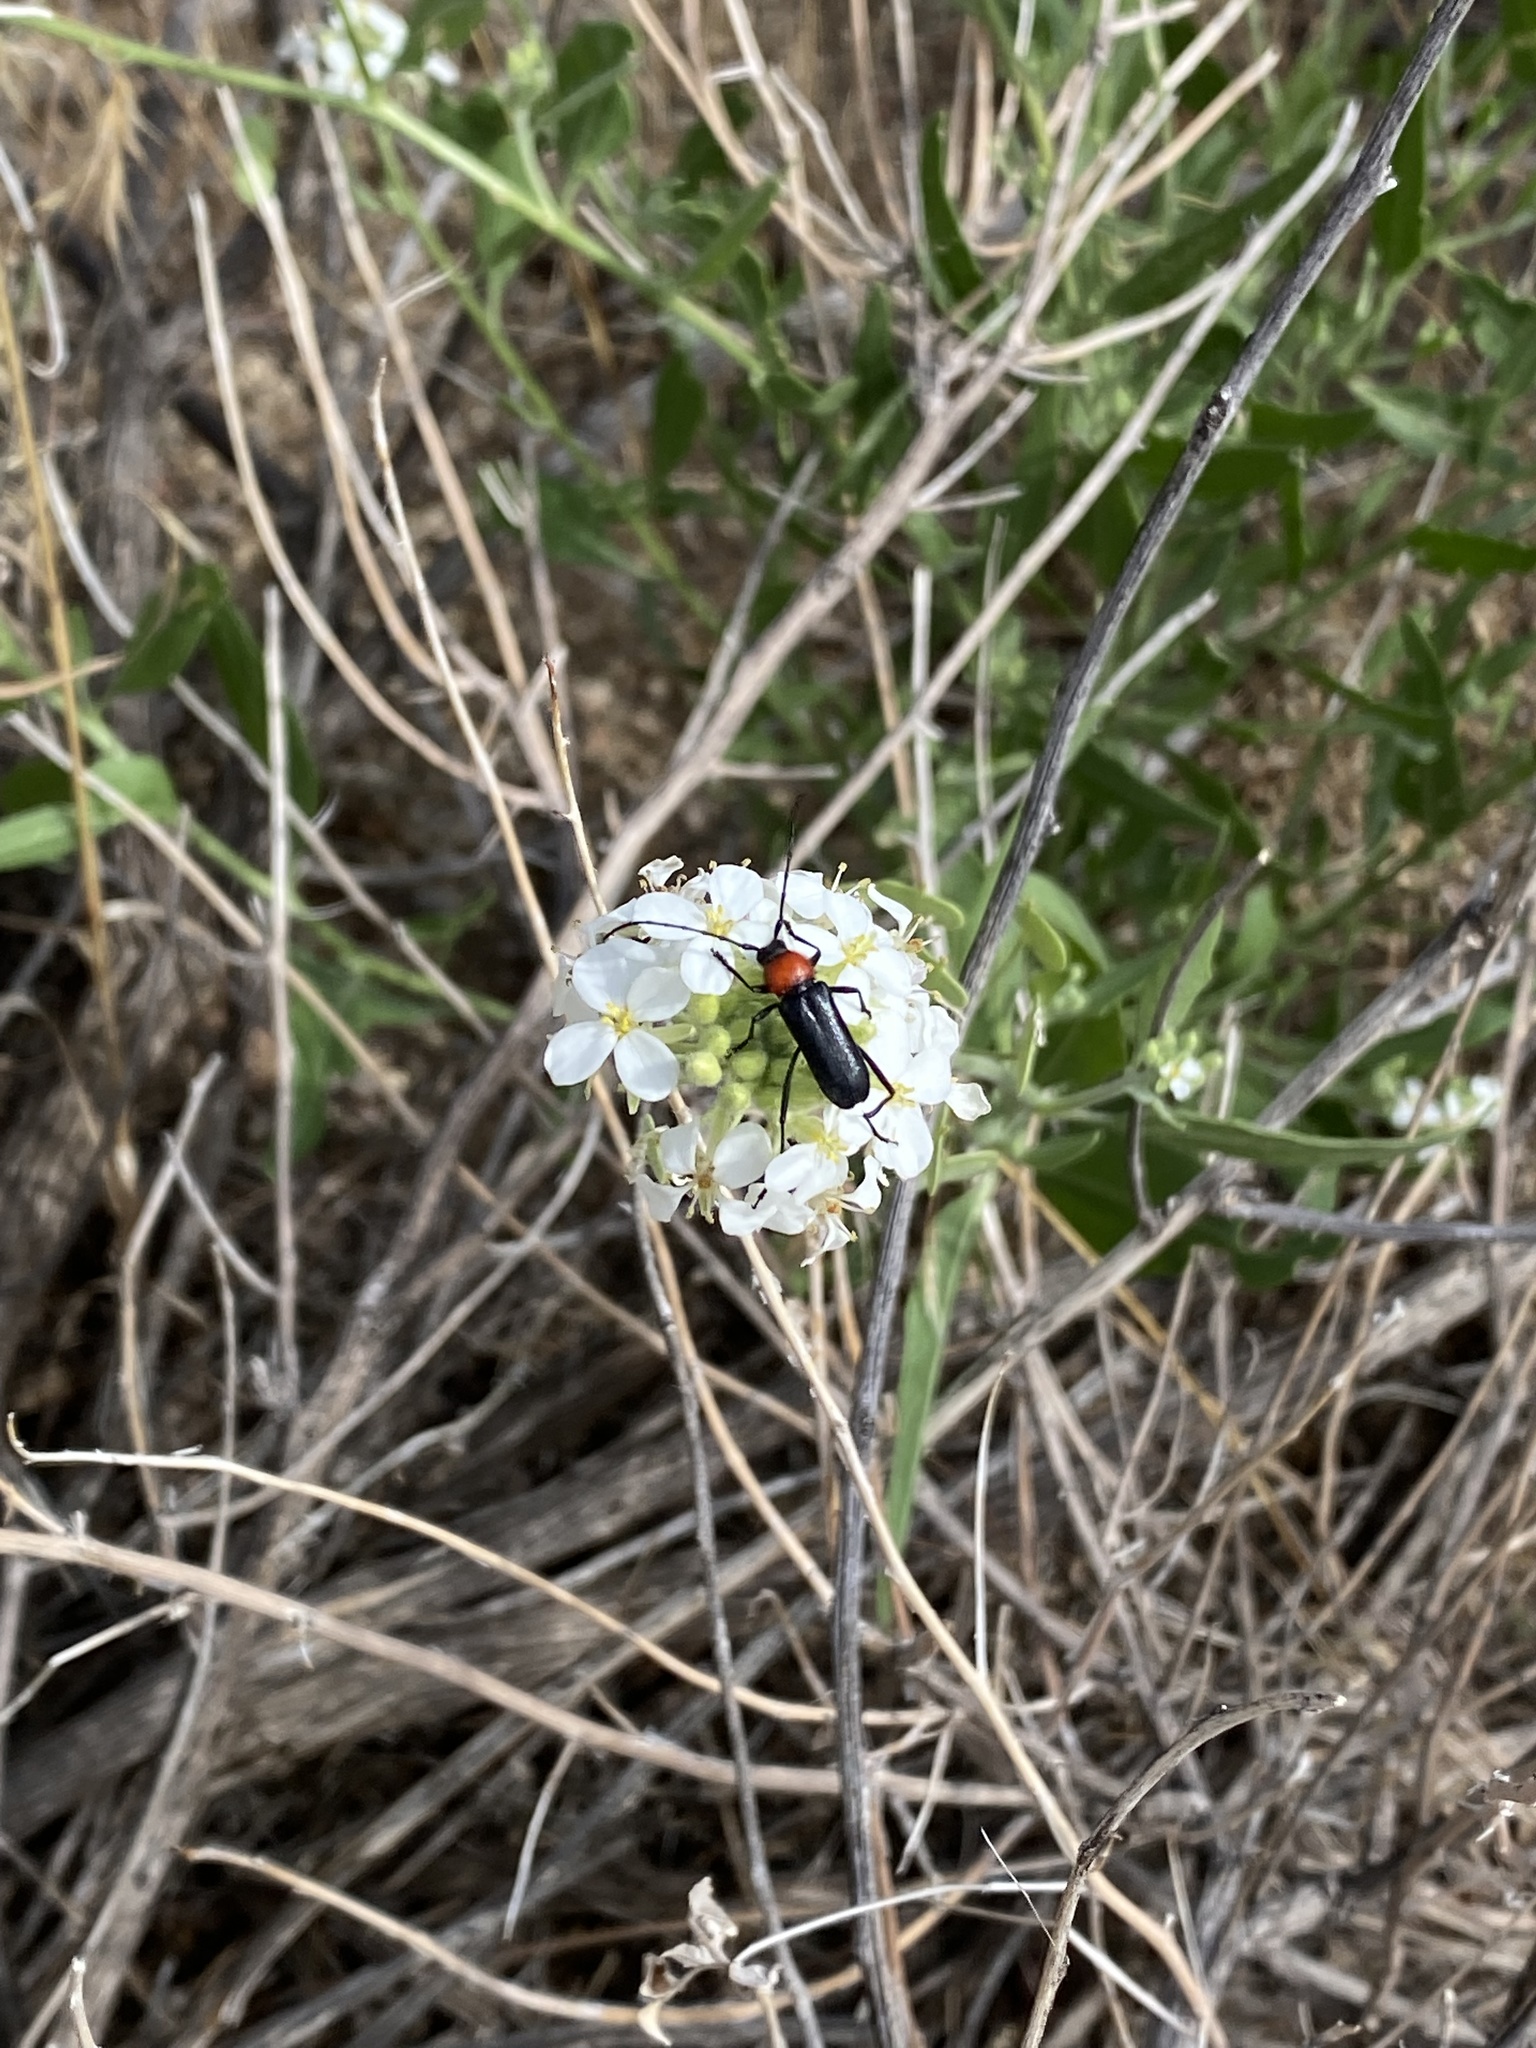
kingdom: Animalia
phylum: Arthropoda
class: Insecta
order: Coleoptera
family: Cerambycidae
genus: Batyle
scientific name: Batyle ignicollis
